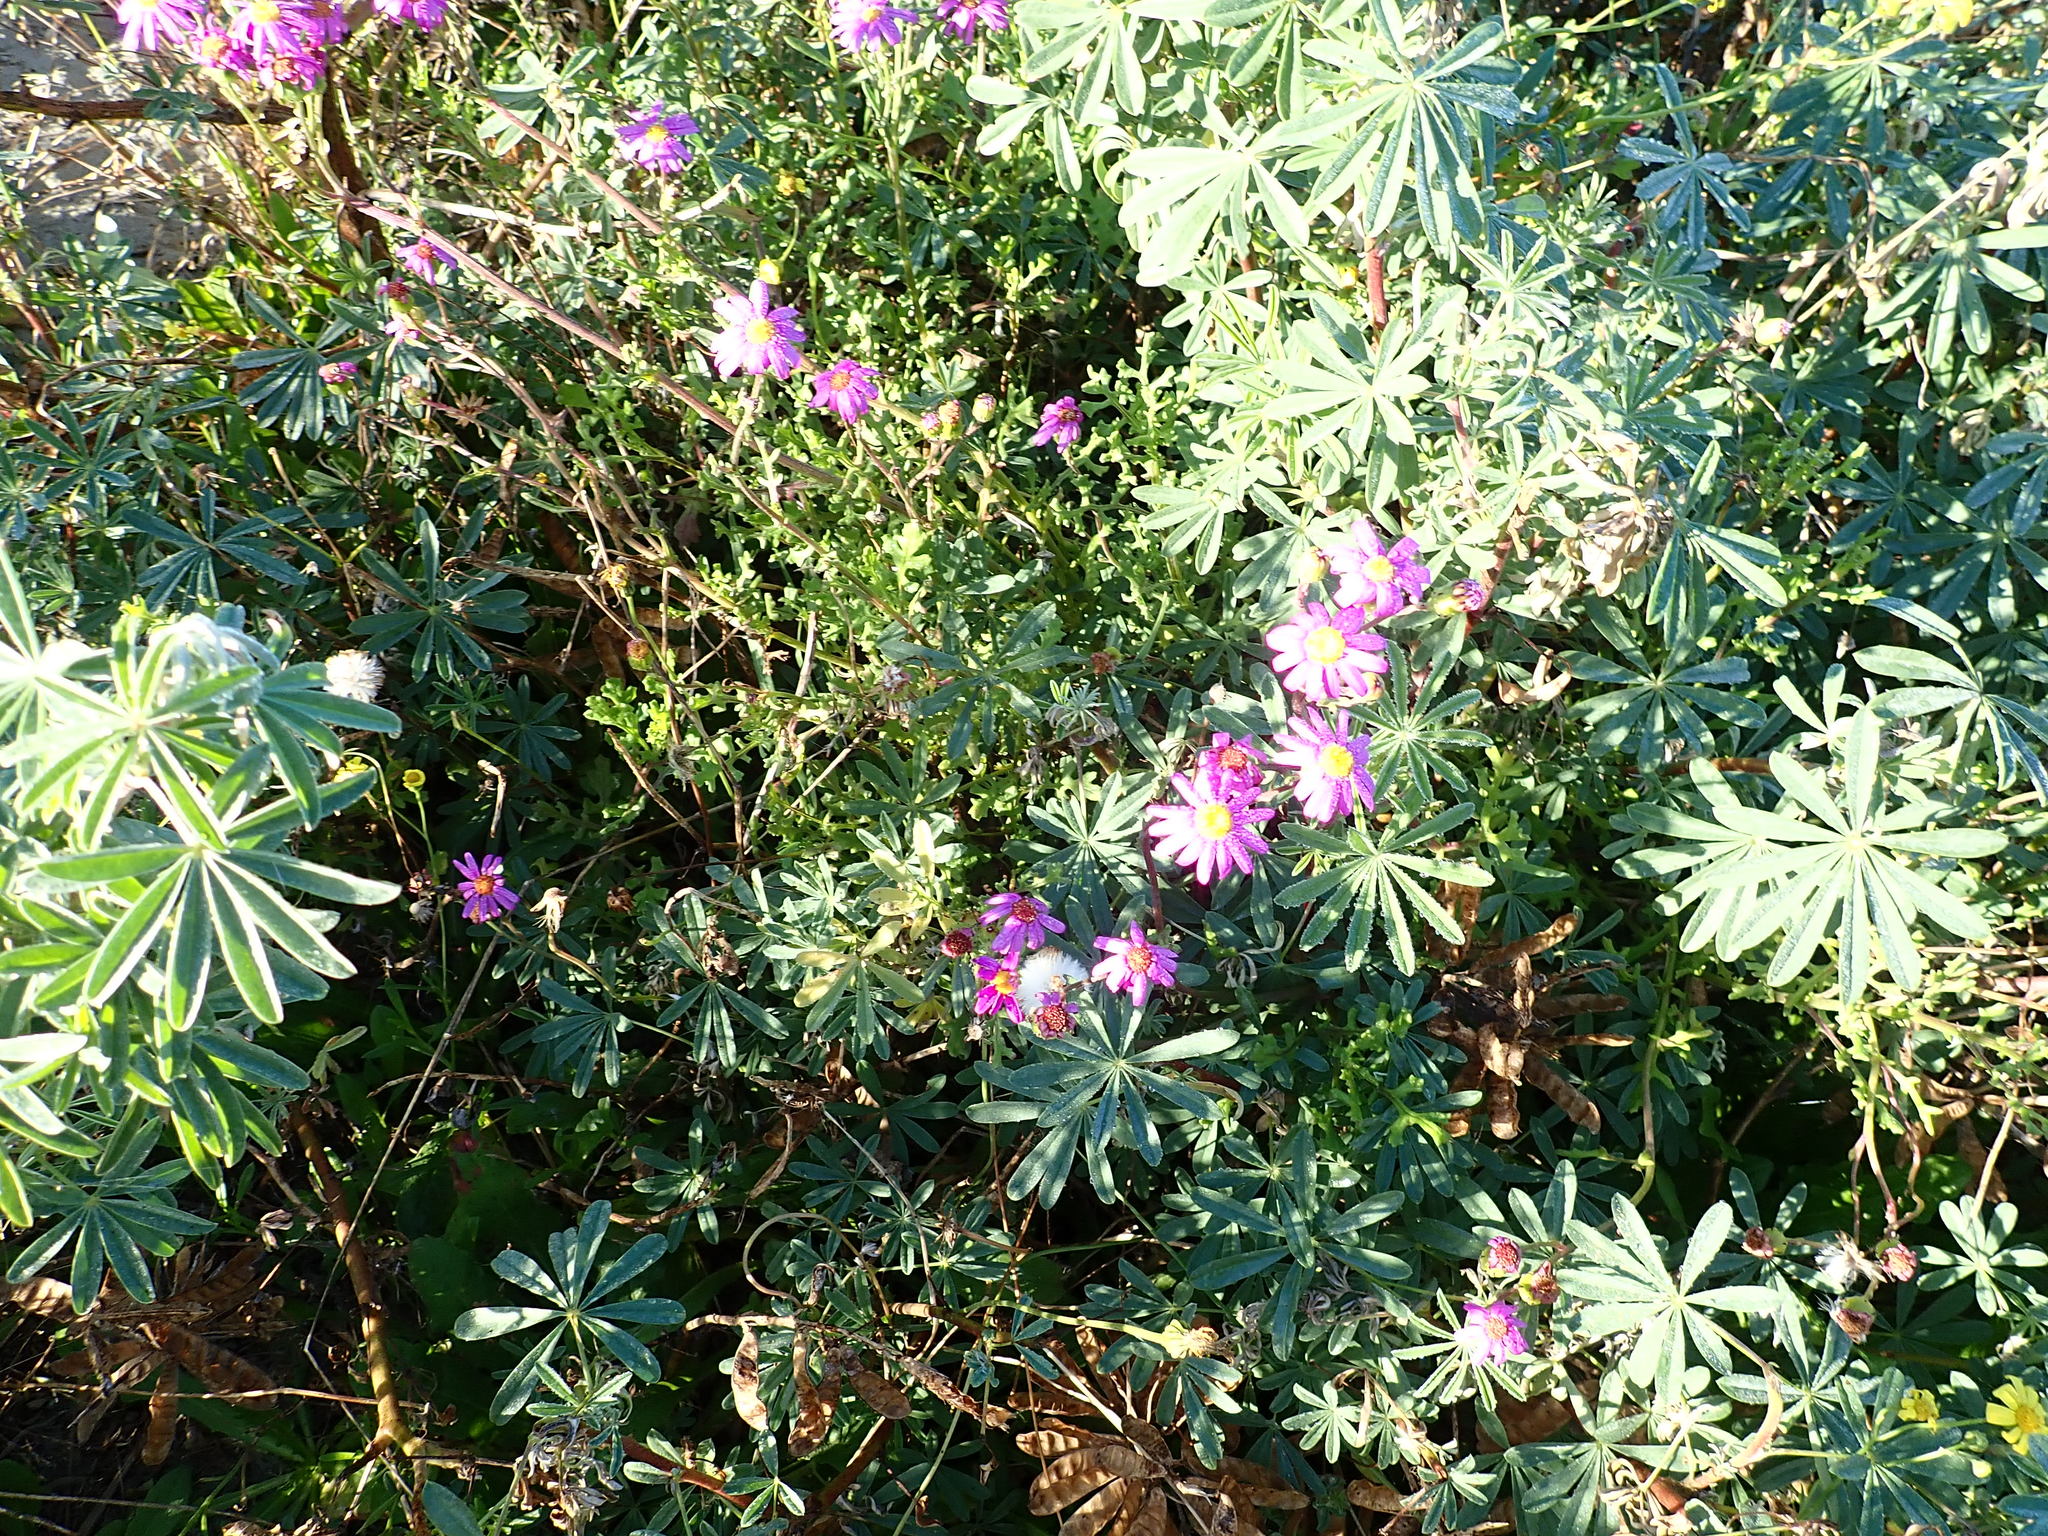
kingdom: Plantae
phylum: Tracheophyta
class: Magnoliopsida
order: Asterales
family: Asteraceae
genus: Senecio
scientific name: Senecio elegans
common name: Purple groundsel
